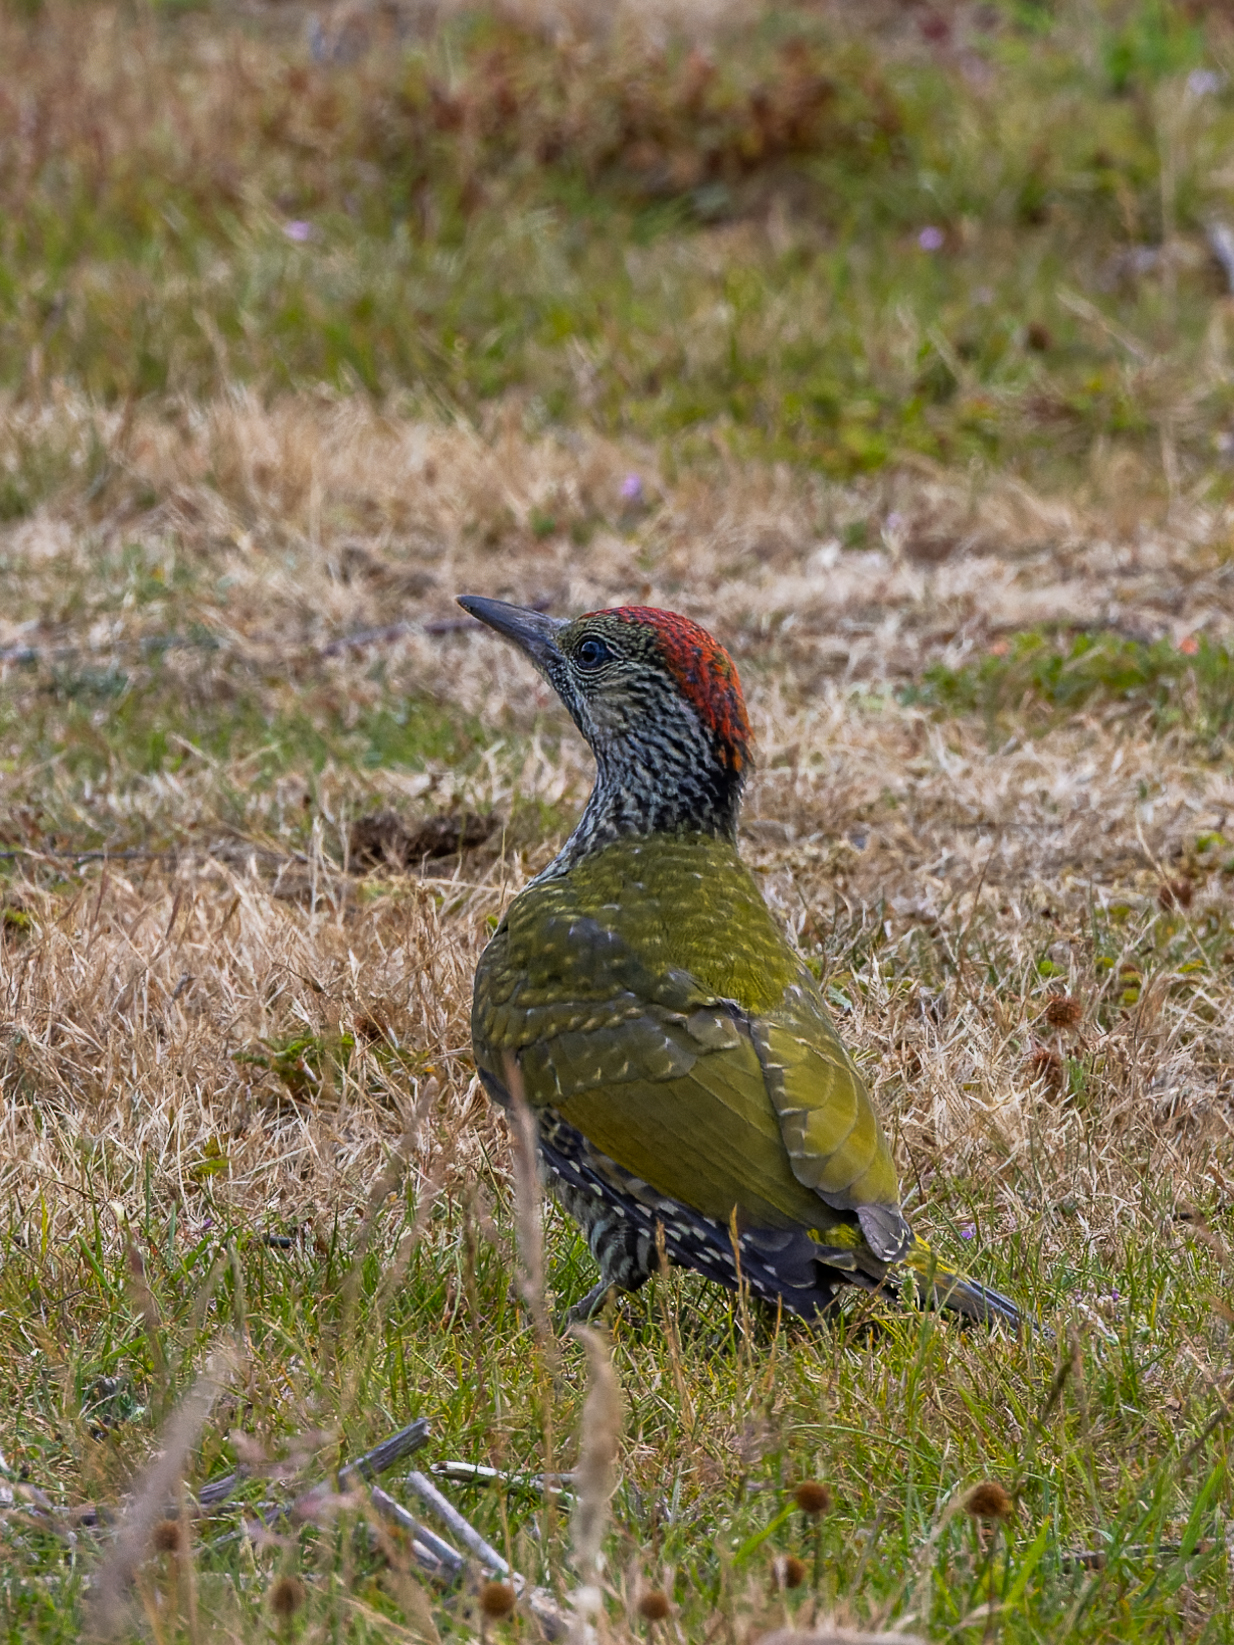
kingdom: Animalia
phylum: Chordata
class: Aves
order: Piciformes
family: Picidae
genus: Picus
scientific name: Picus viridis
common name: European green woodpecker
